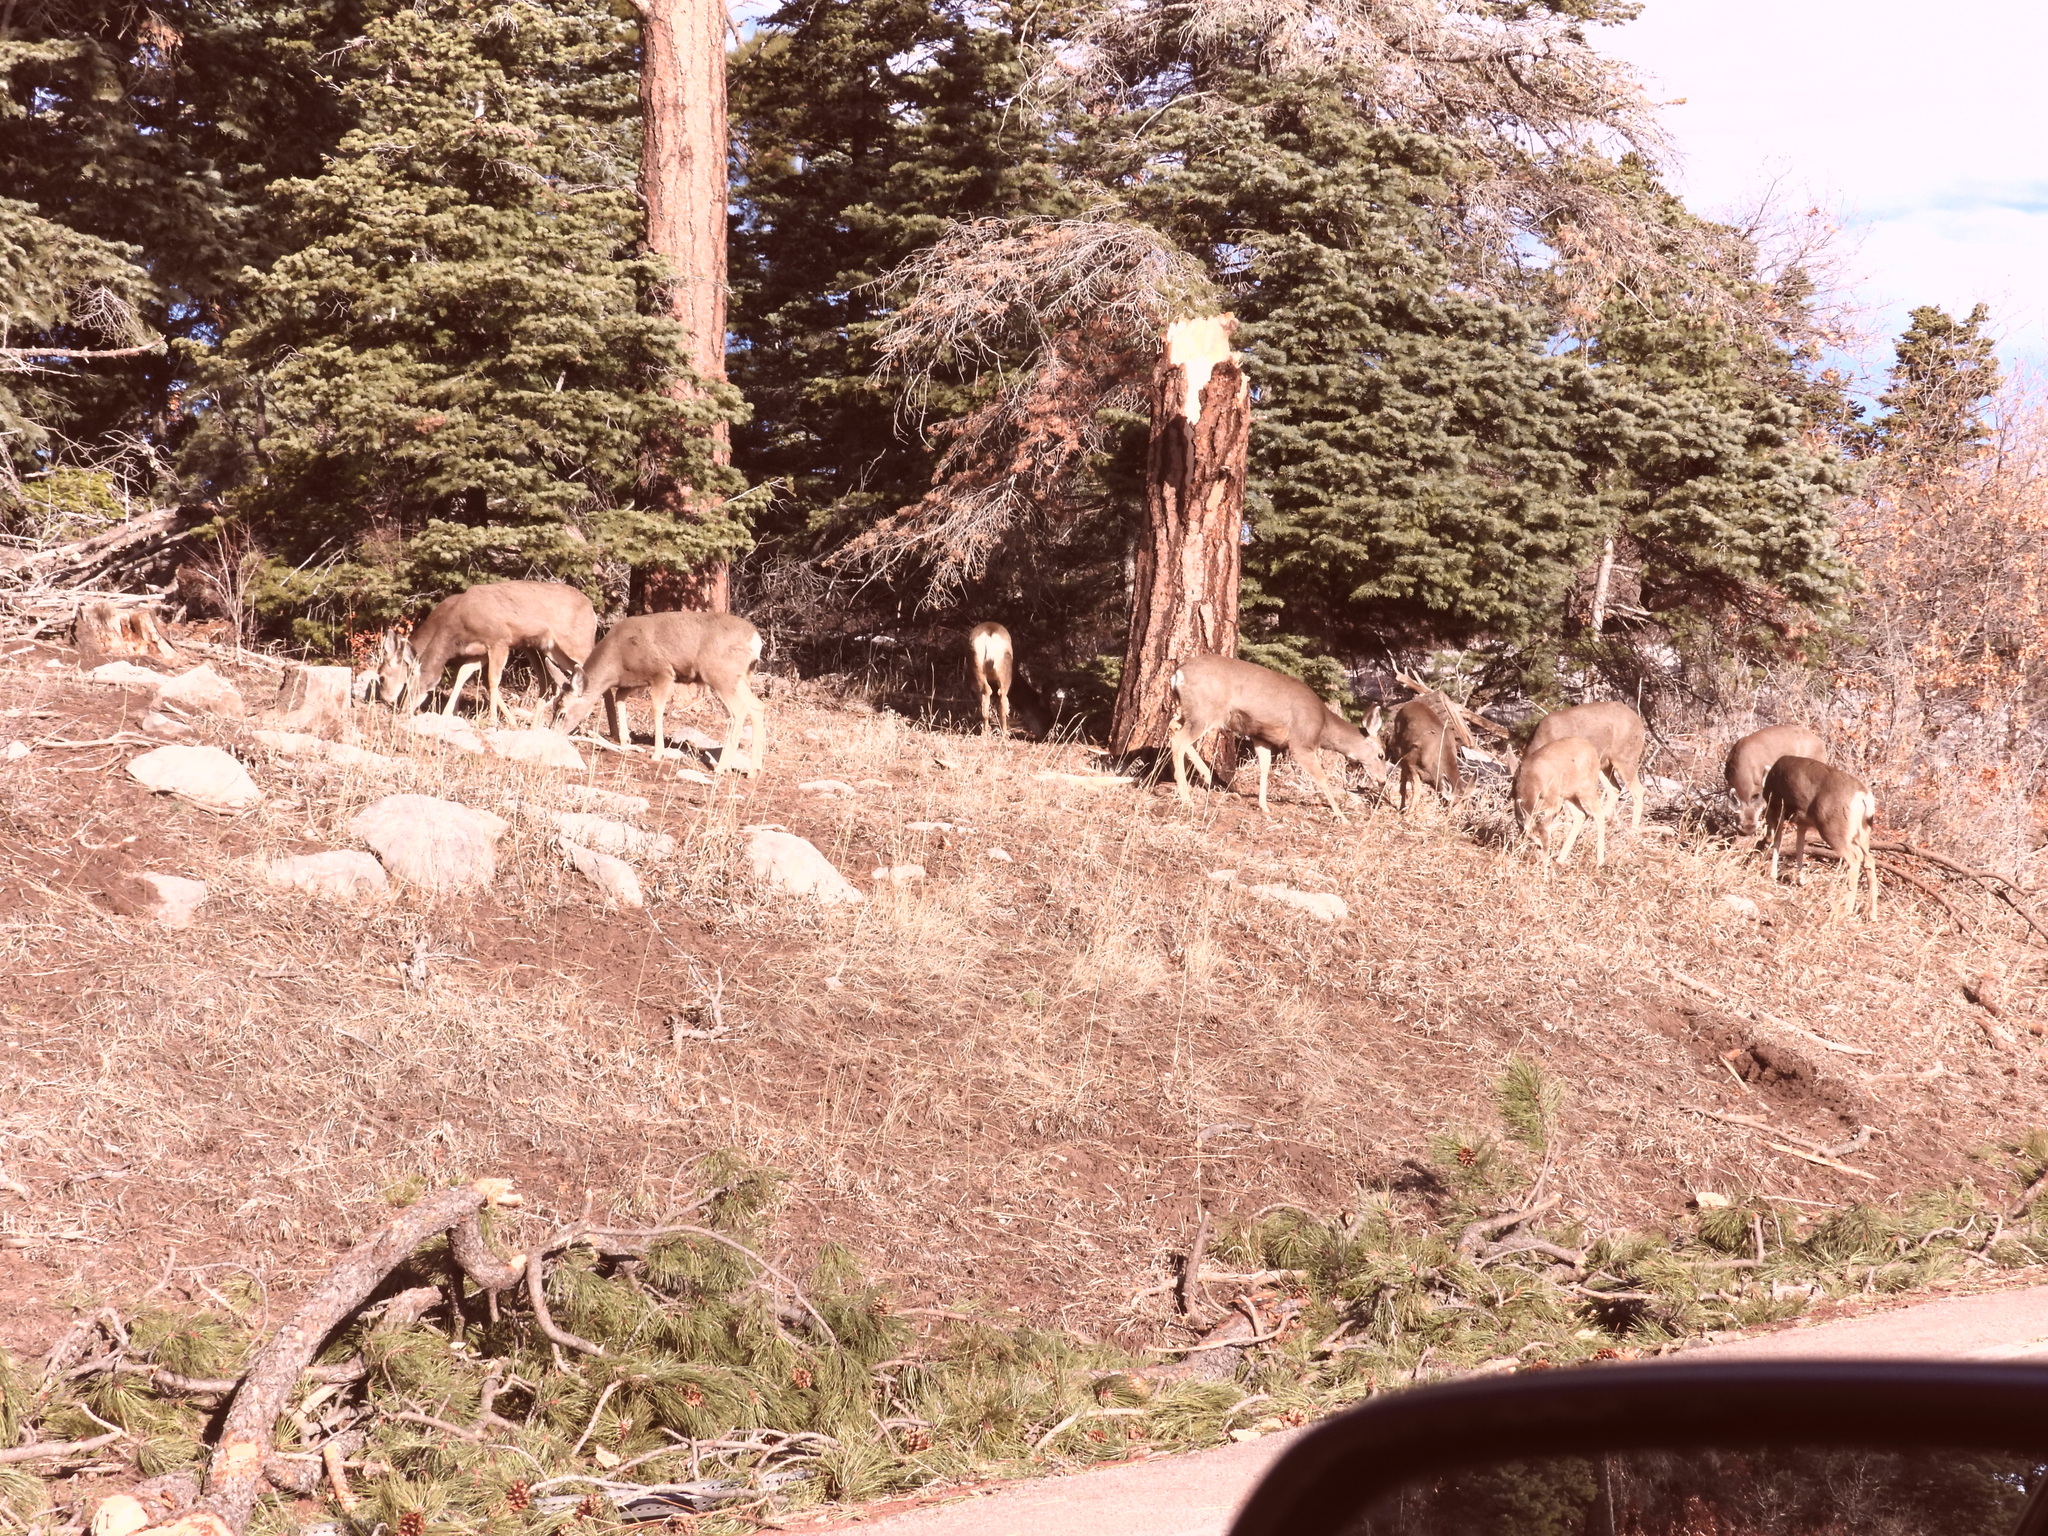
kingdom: Animalia
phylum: Chordata
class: Mammalia
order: Artiodactyla
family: Cervidae
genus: Odocoileus
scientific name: Odocoileus hemionus
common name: Mule deer
